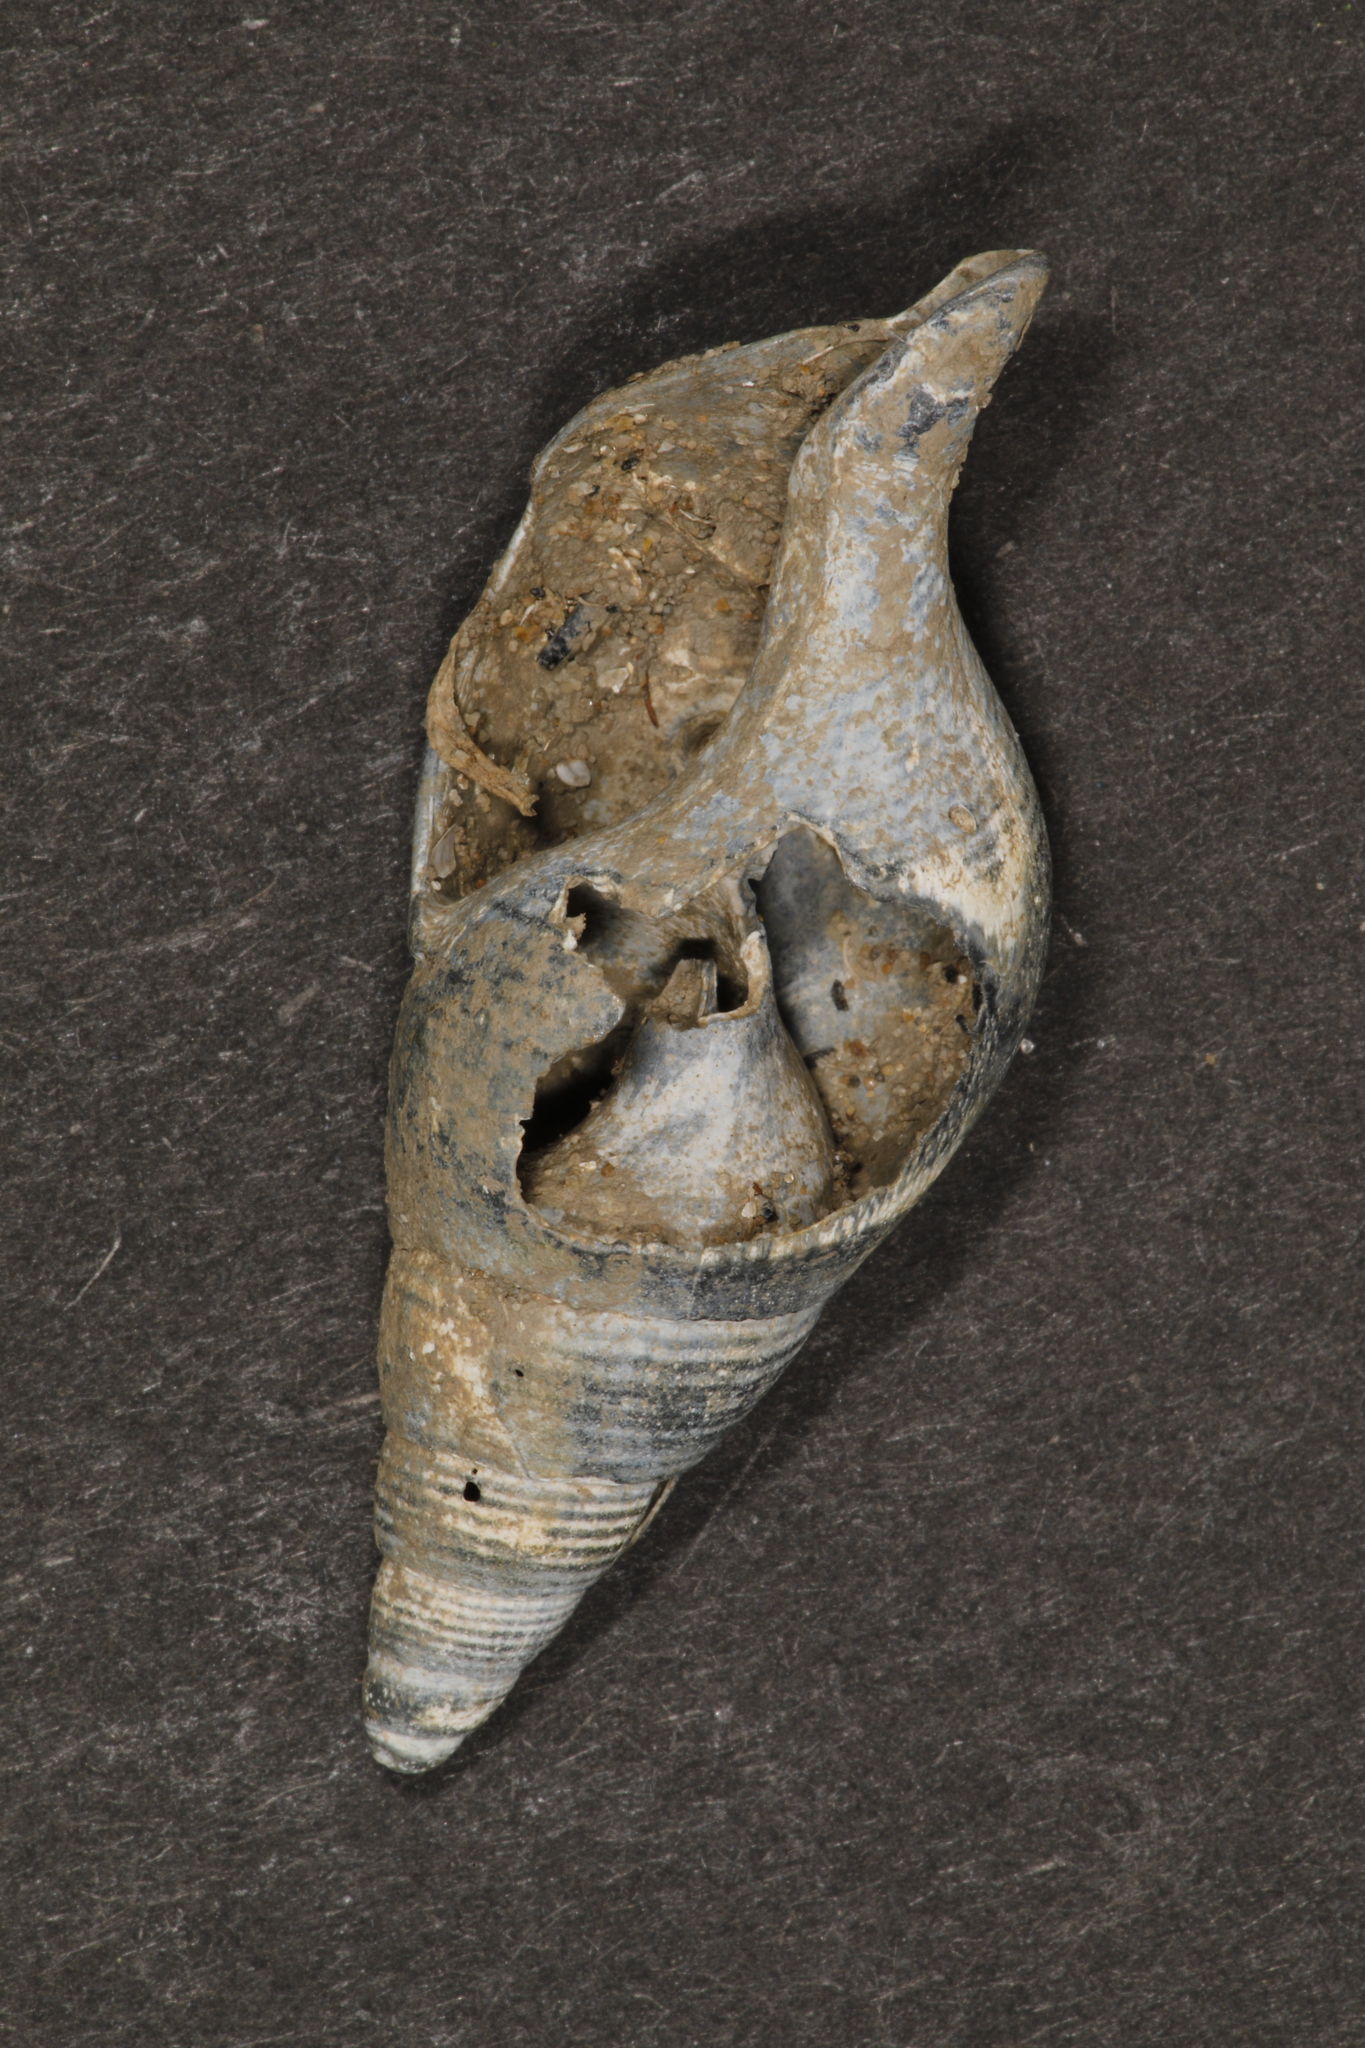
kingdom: Animalia
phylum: Mollusca
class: Gastropoda
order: Neogastropoda
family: Colidae
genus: Colus
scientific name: Colus gracilis
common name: Graceful colus
